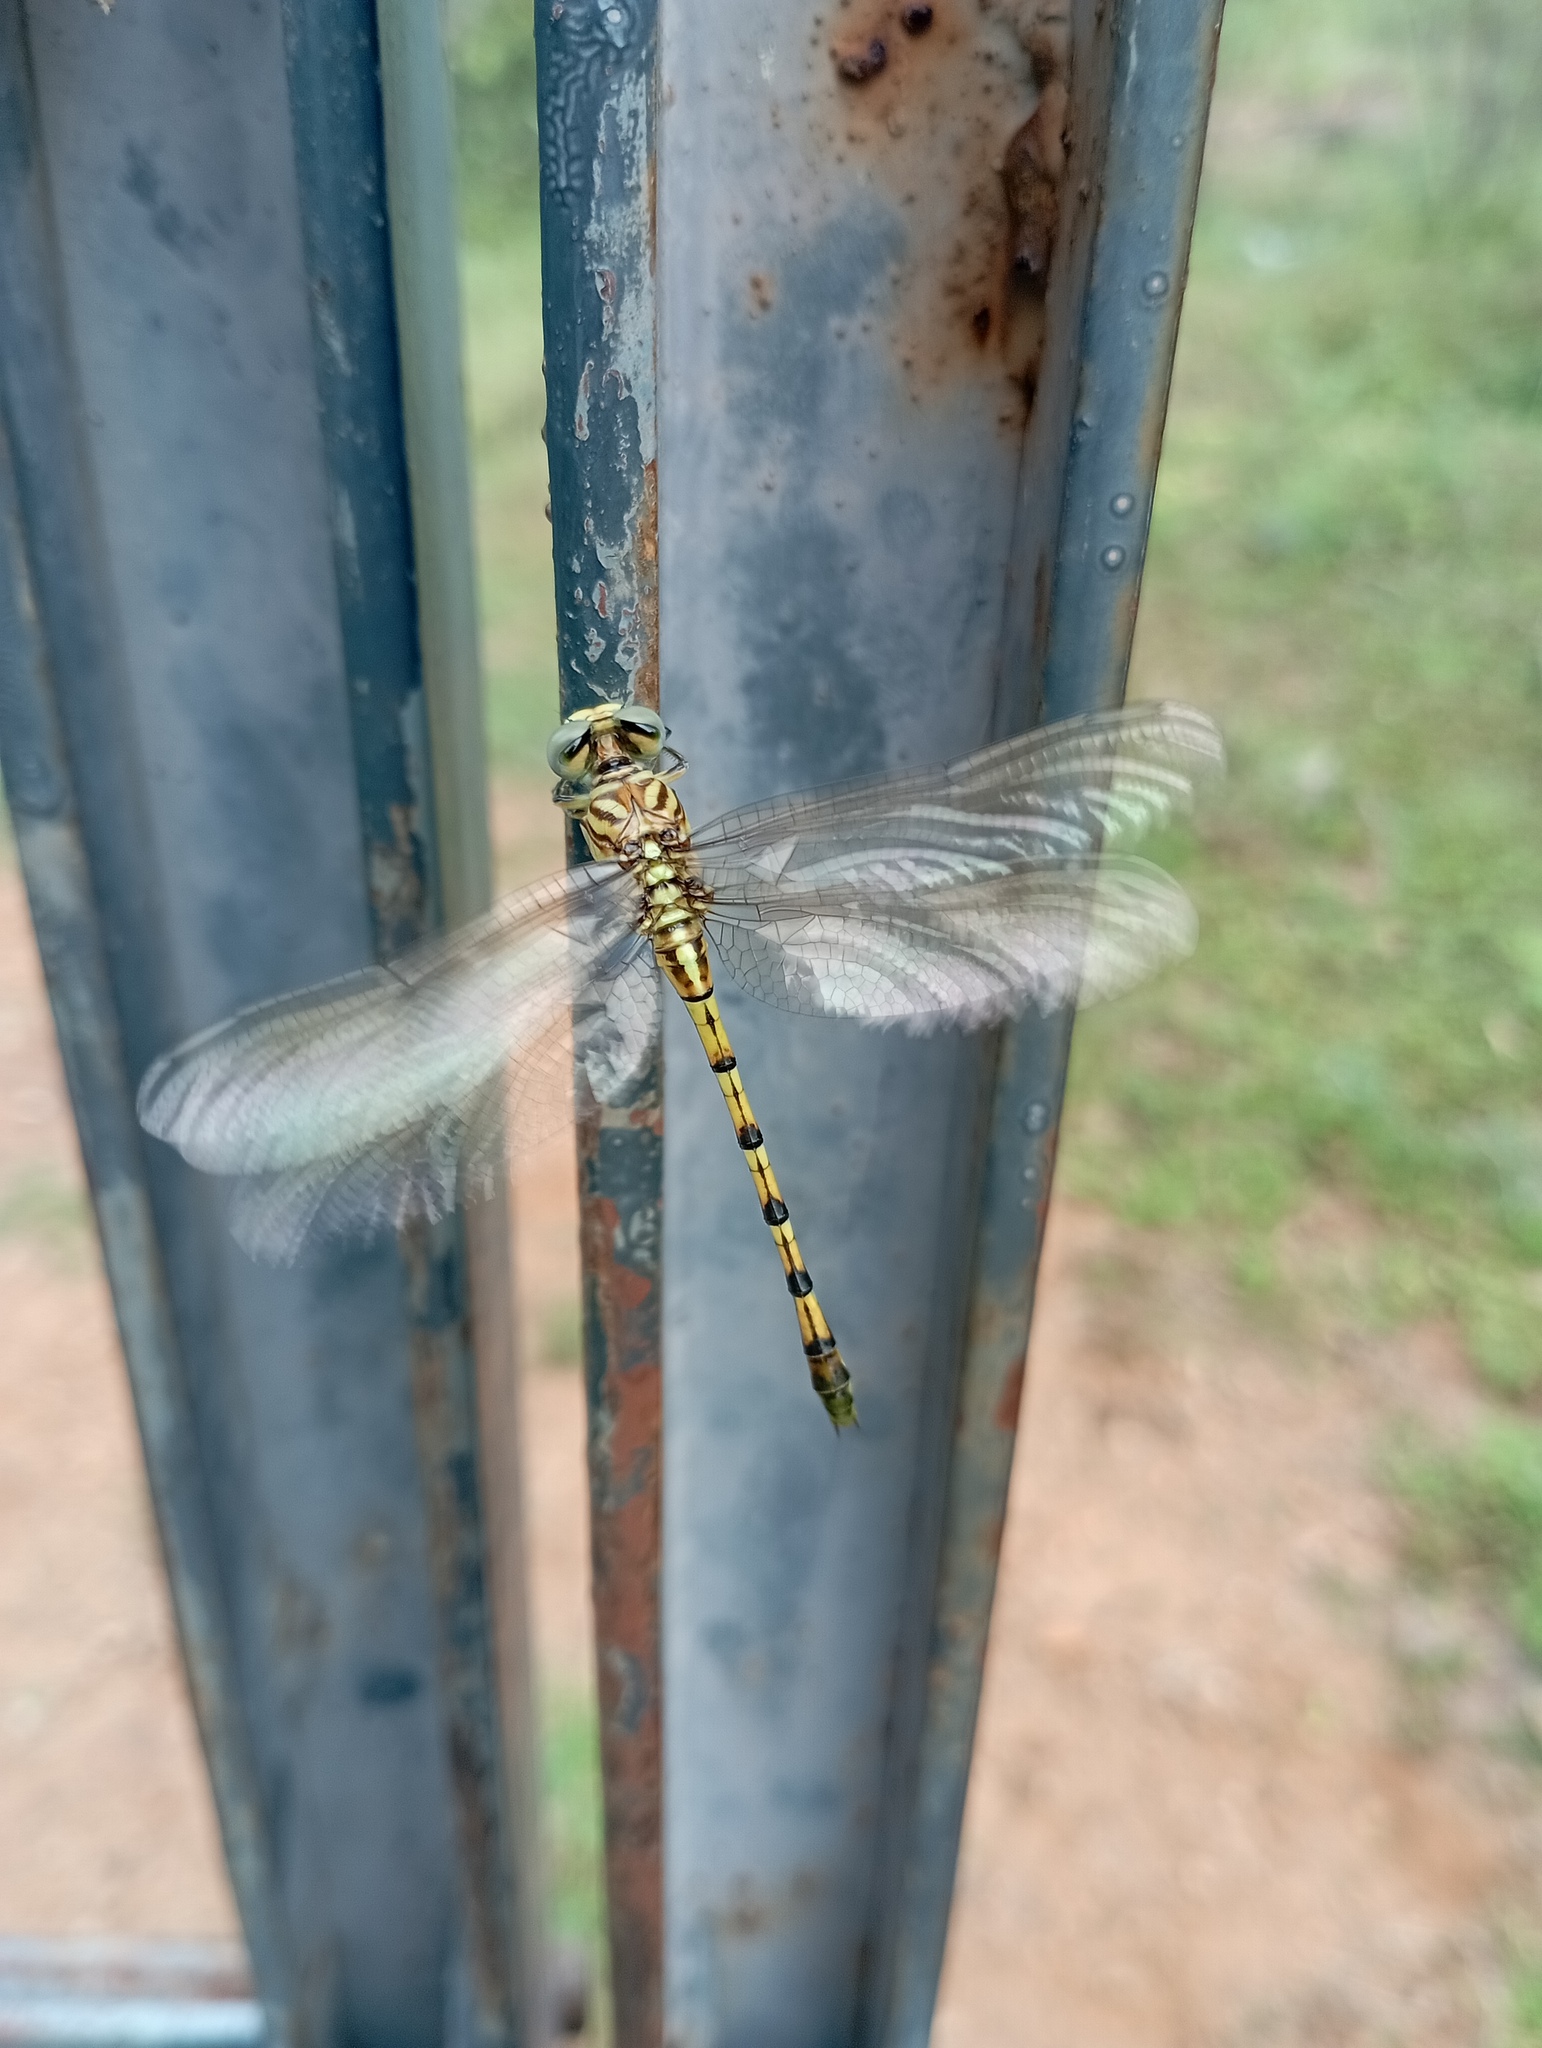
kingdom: Animalia
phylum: Arthropoda
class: Insecta
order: Odonata
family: Gomphidae
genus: Paragomphus
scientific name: Paragomphus lineatus
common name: Lined hooktail
